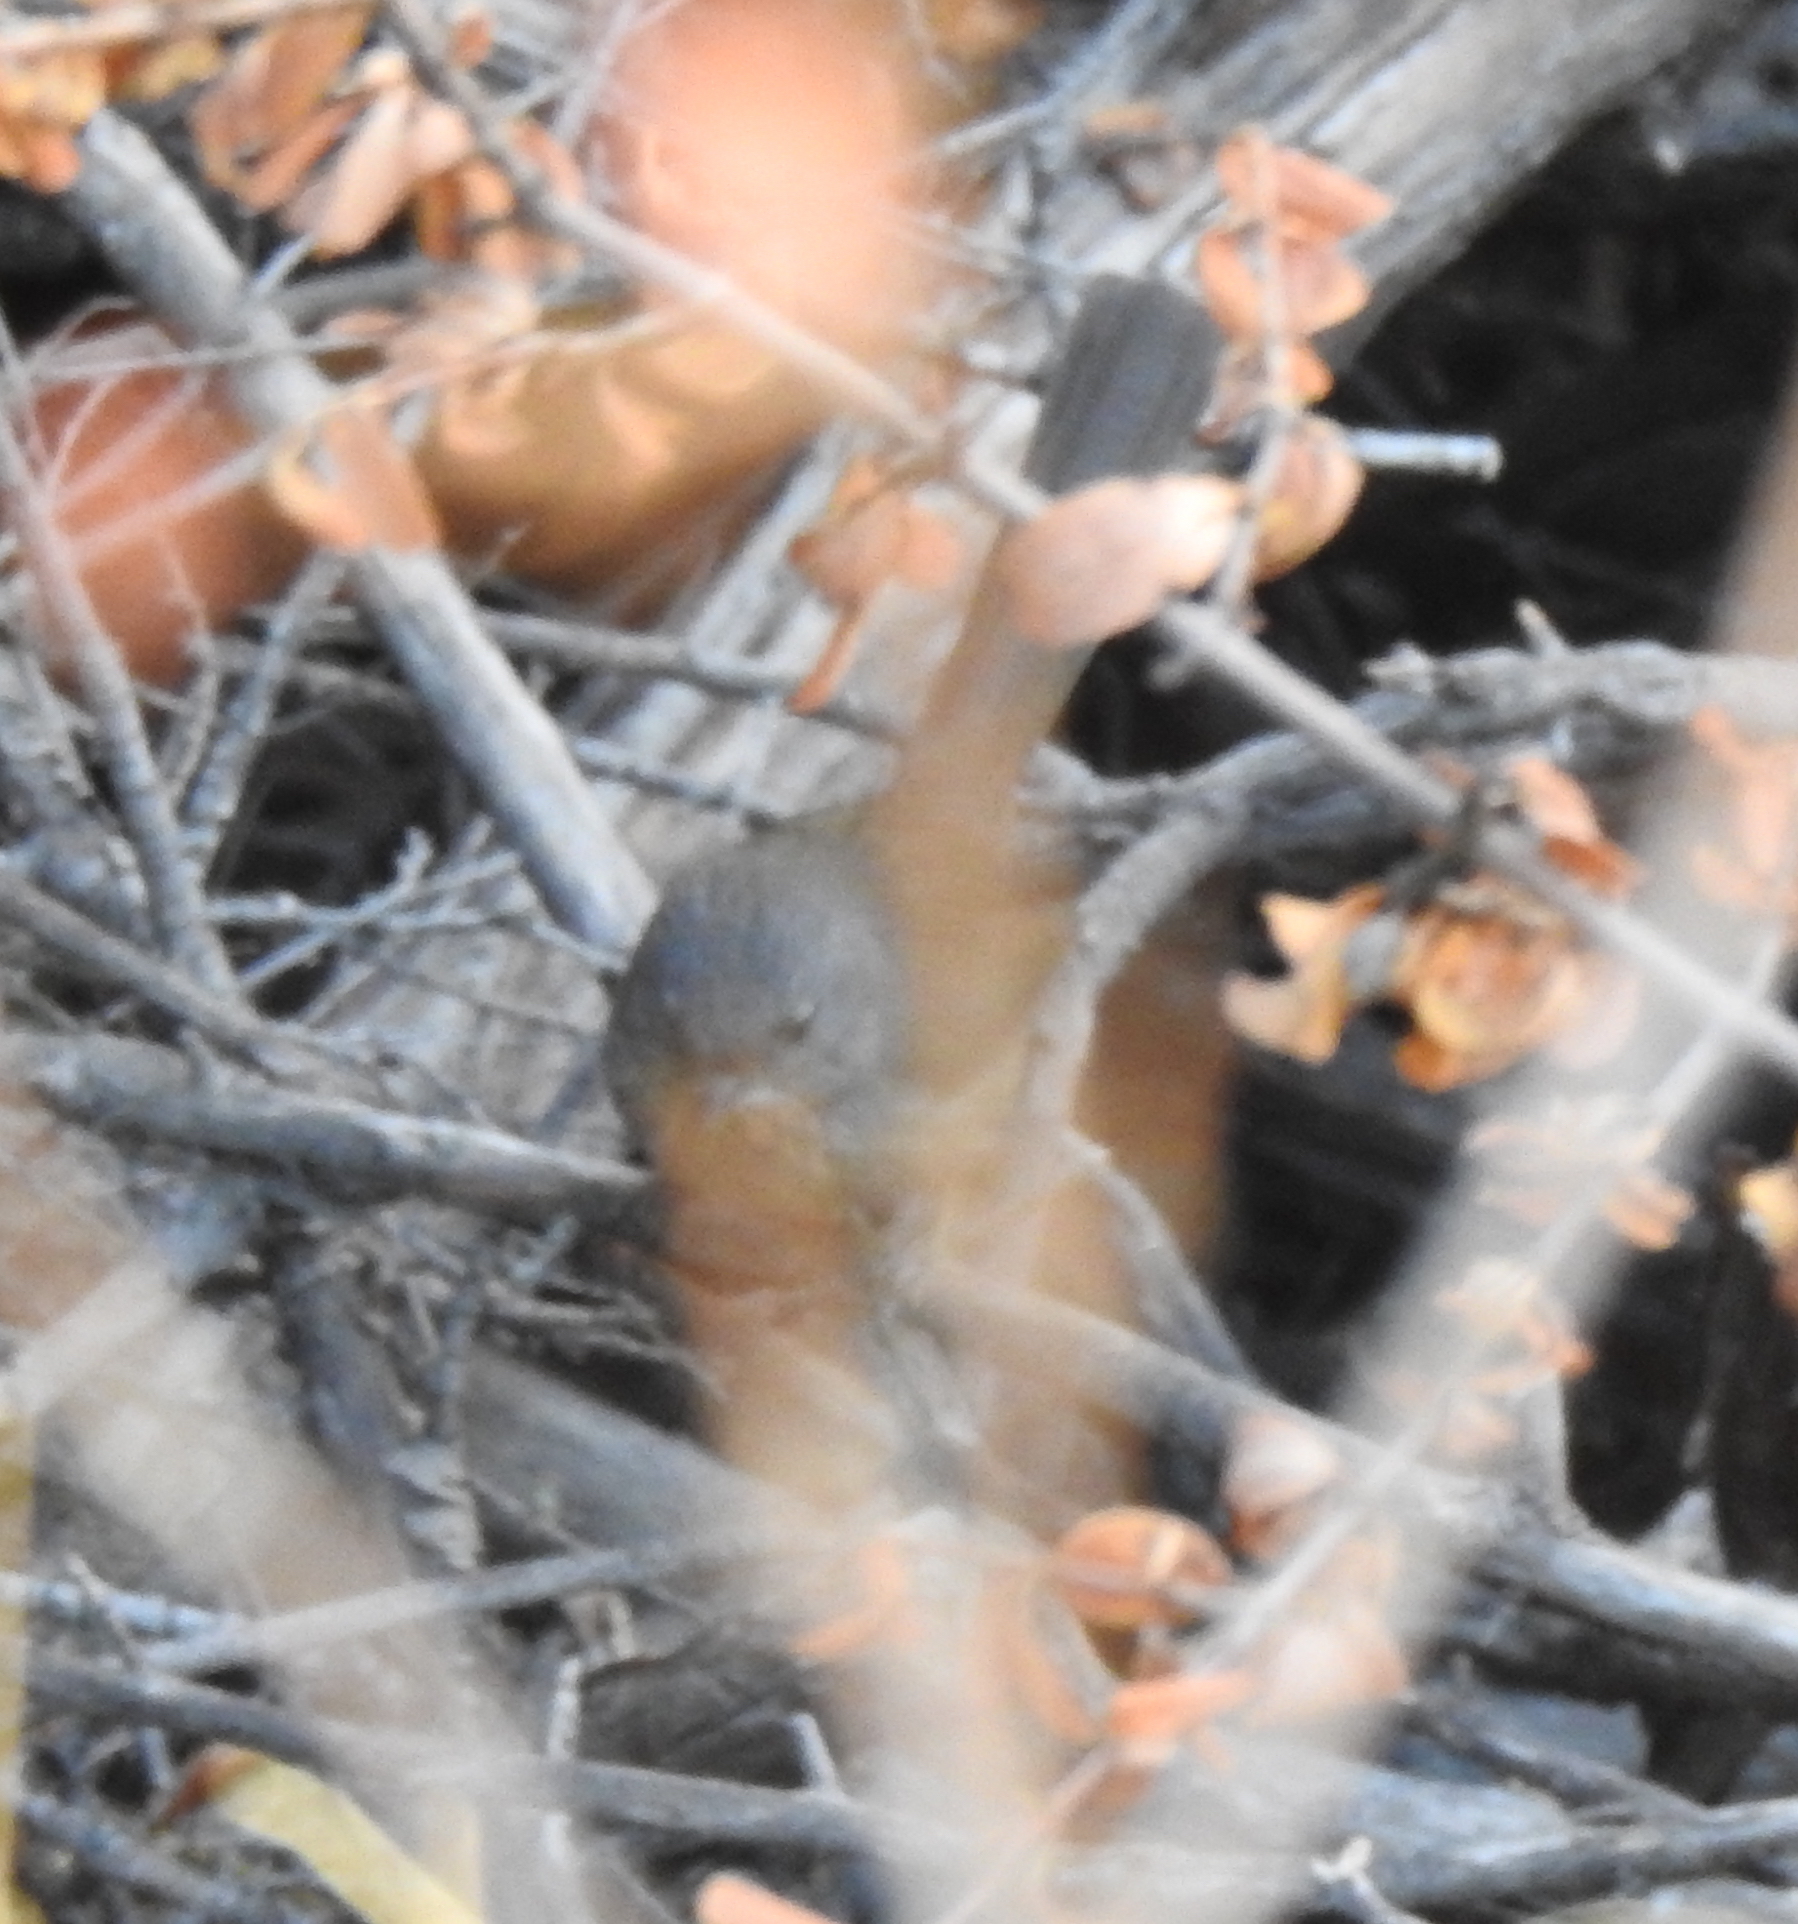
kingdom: Animalia
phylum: Chordata
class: Aves
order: Passeriformes
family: Sylviidae
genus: Chamaea
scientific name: Chamaea fasciata
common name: Wrentit
